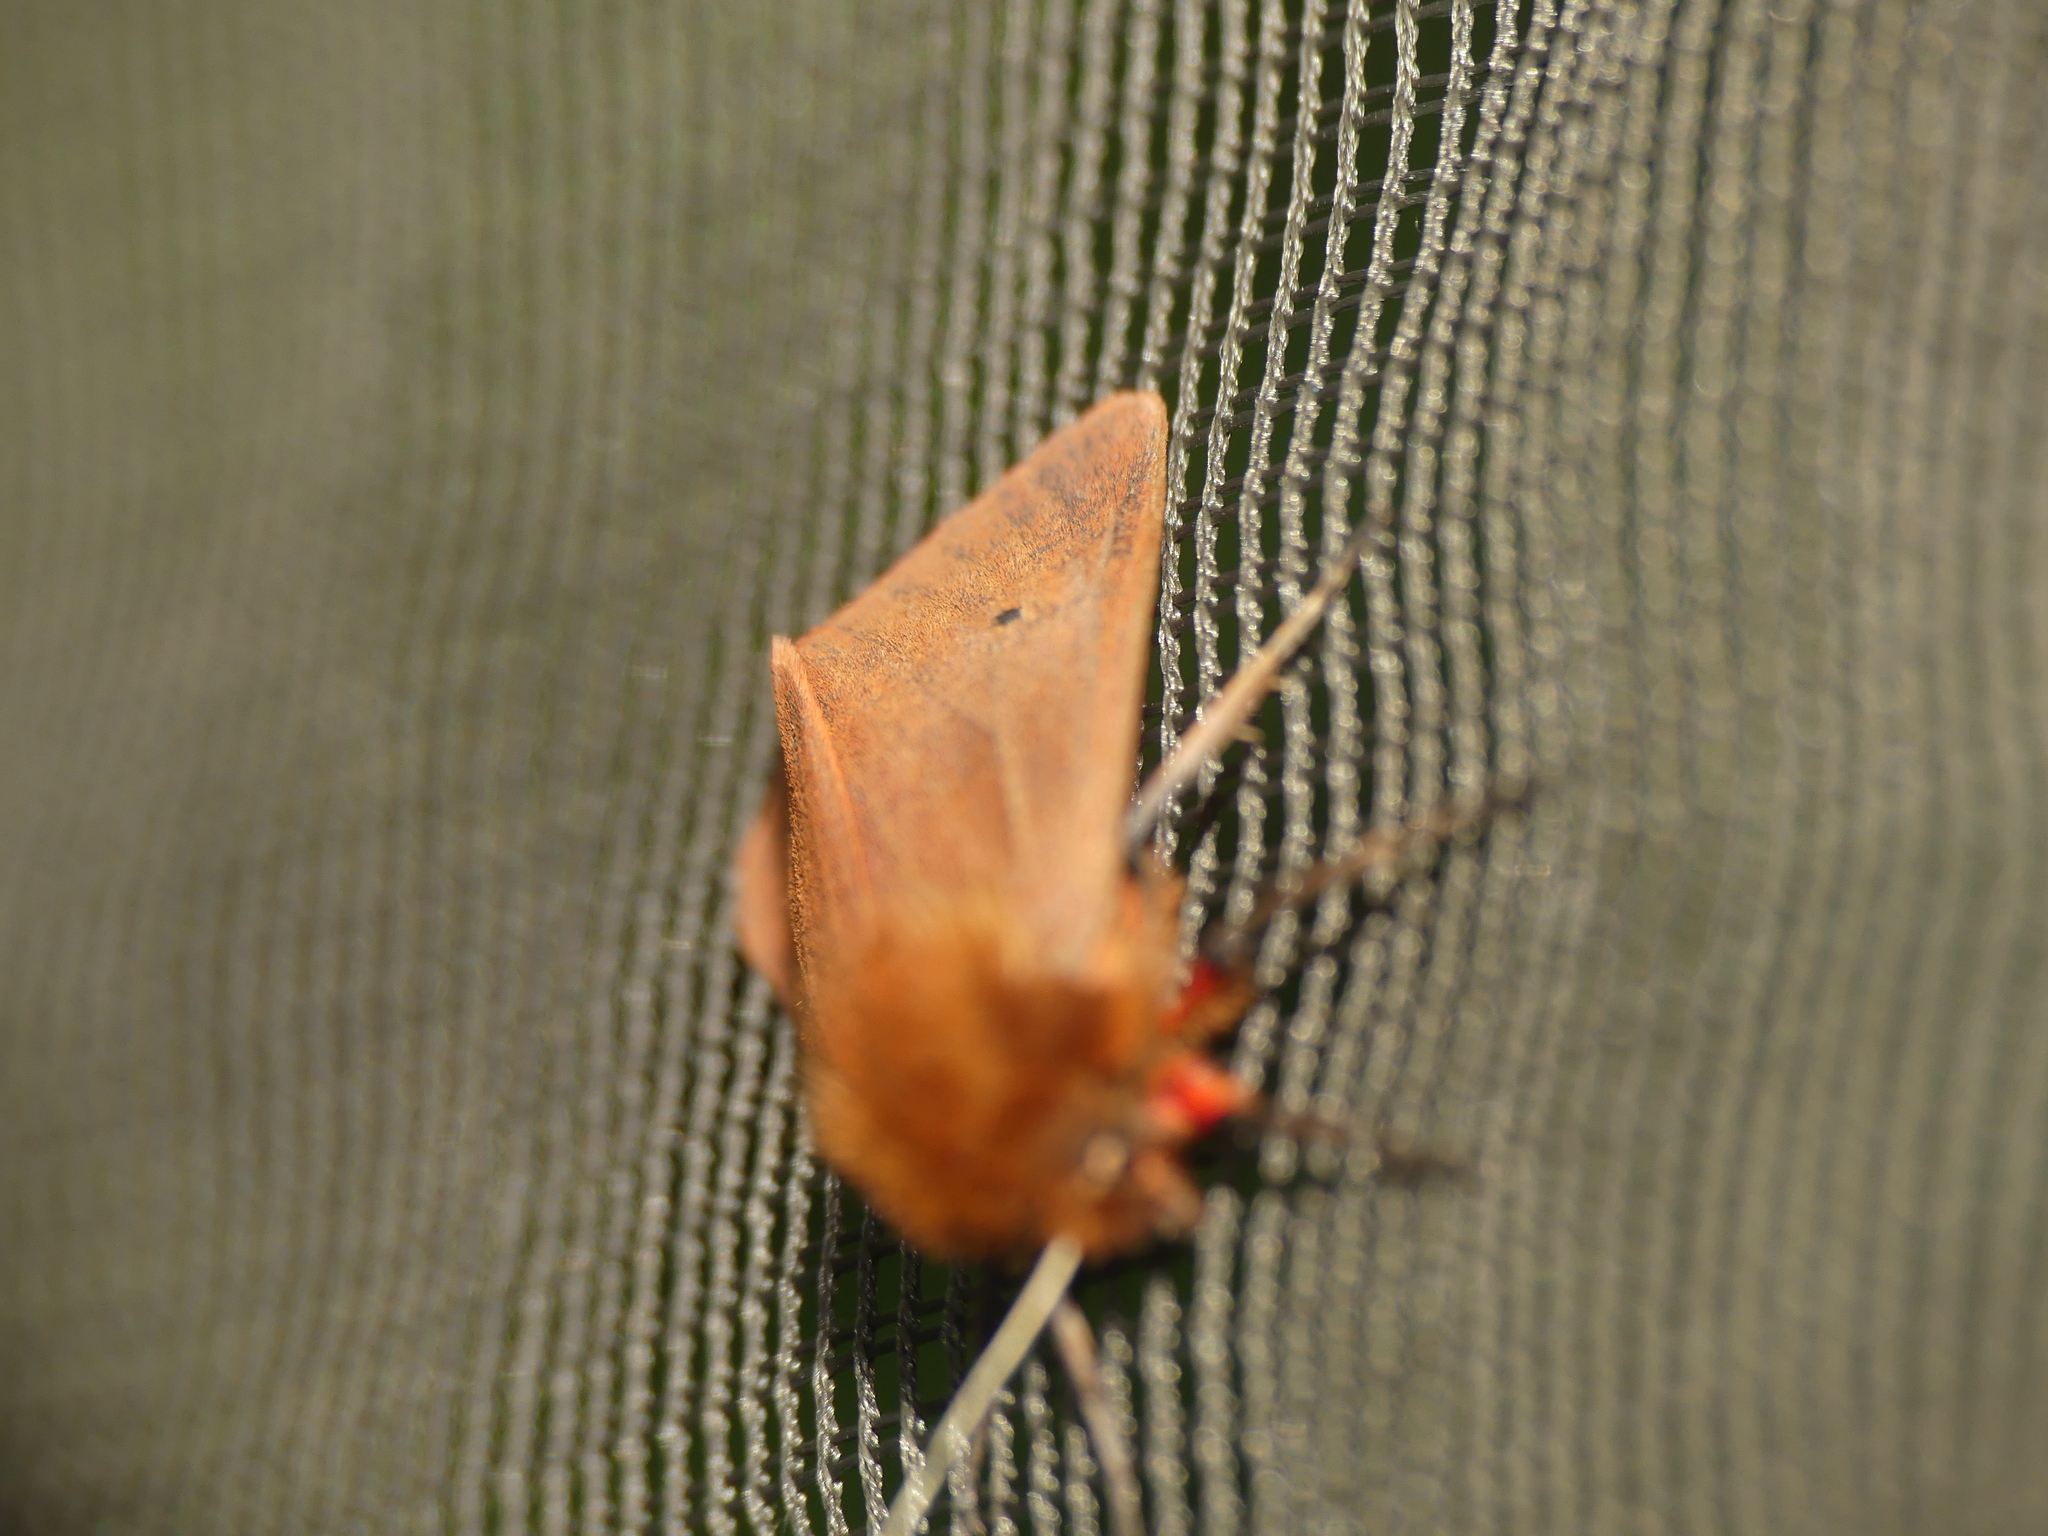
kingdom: Animalia
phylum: Arthropoda
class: Insecta
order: Lepidoptera
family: Erebidae
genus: Phragmatobia
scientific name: Phragmatobia fuliginosa
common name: Ruby tiger
